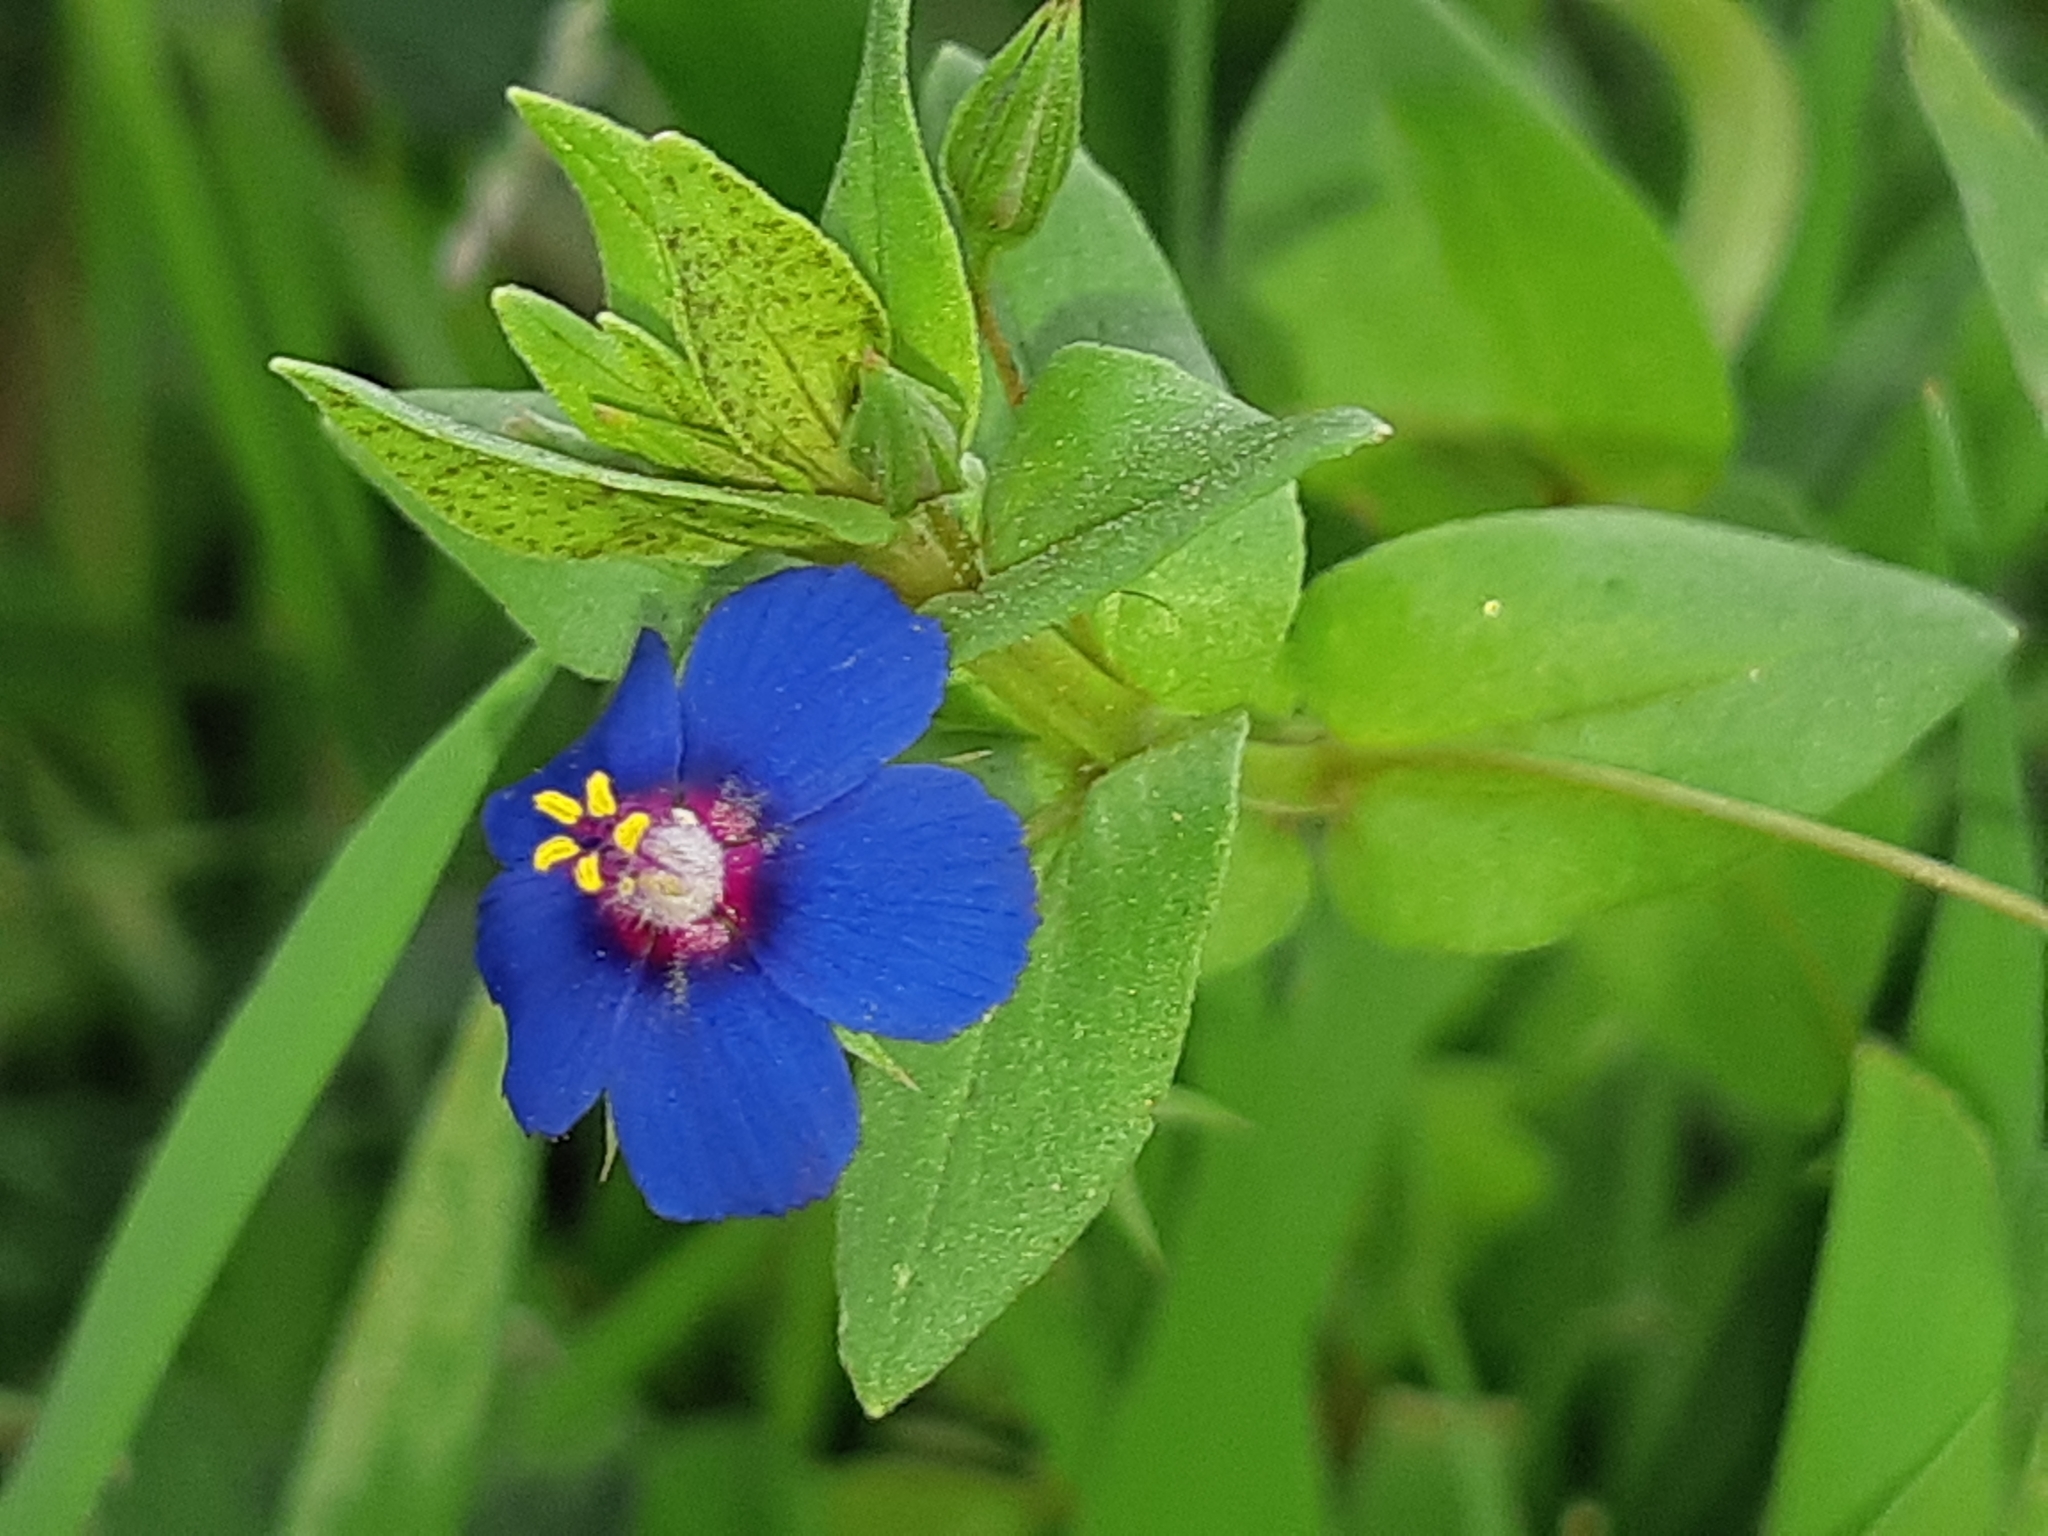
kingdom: Plantae
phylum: Tracheophyta
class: Magnoliopsida
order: Ericales
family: Primulaceae
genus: Lysimachia
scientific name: Lysimachia loeflingii
